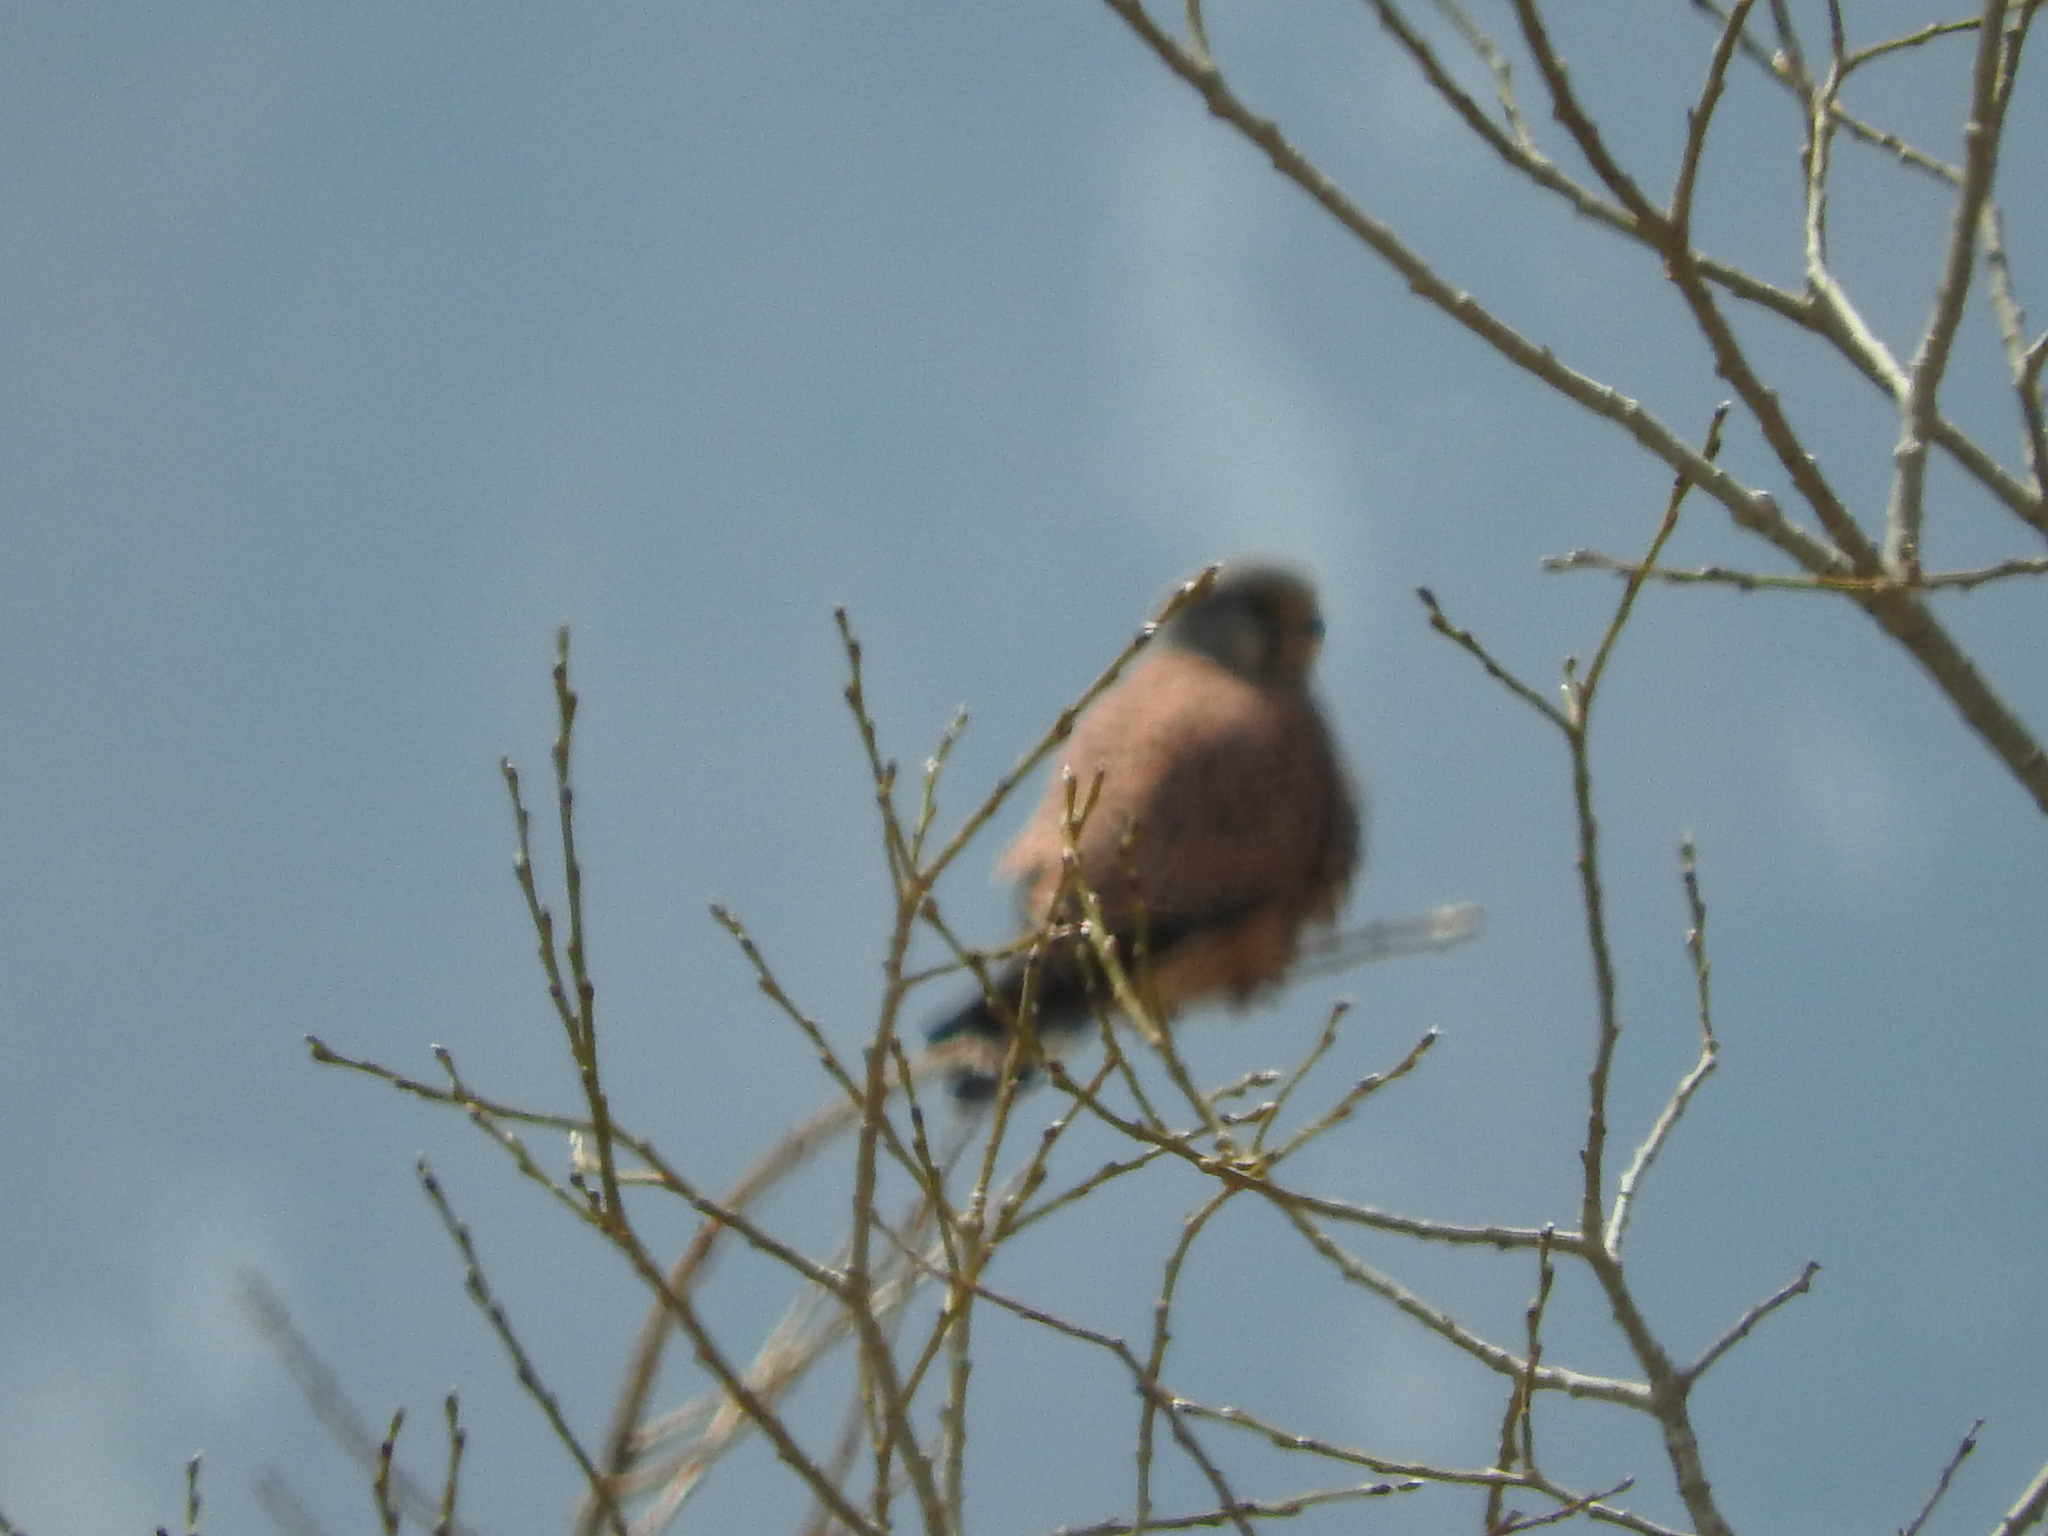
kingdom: Animalia
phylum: Chordata
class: Aves
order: Falconiformes
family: Falconidae
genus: Falco
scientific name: Falco tinnunculus
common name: Common kestrel
